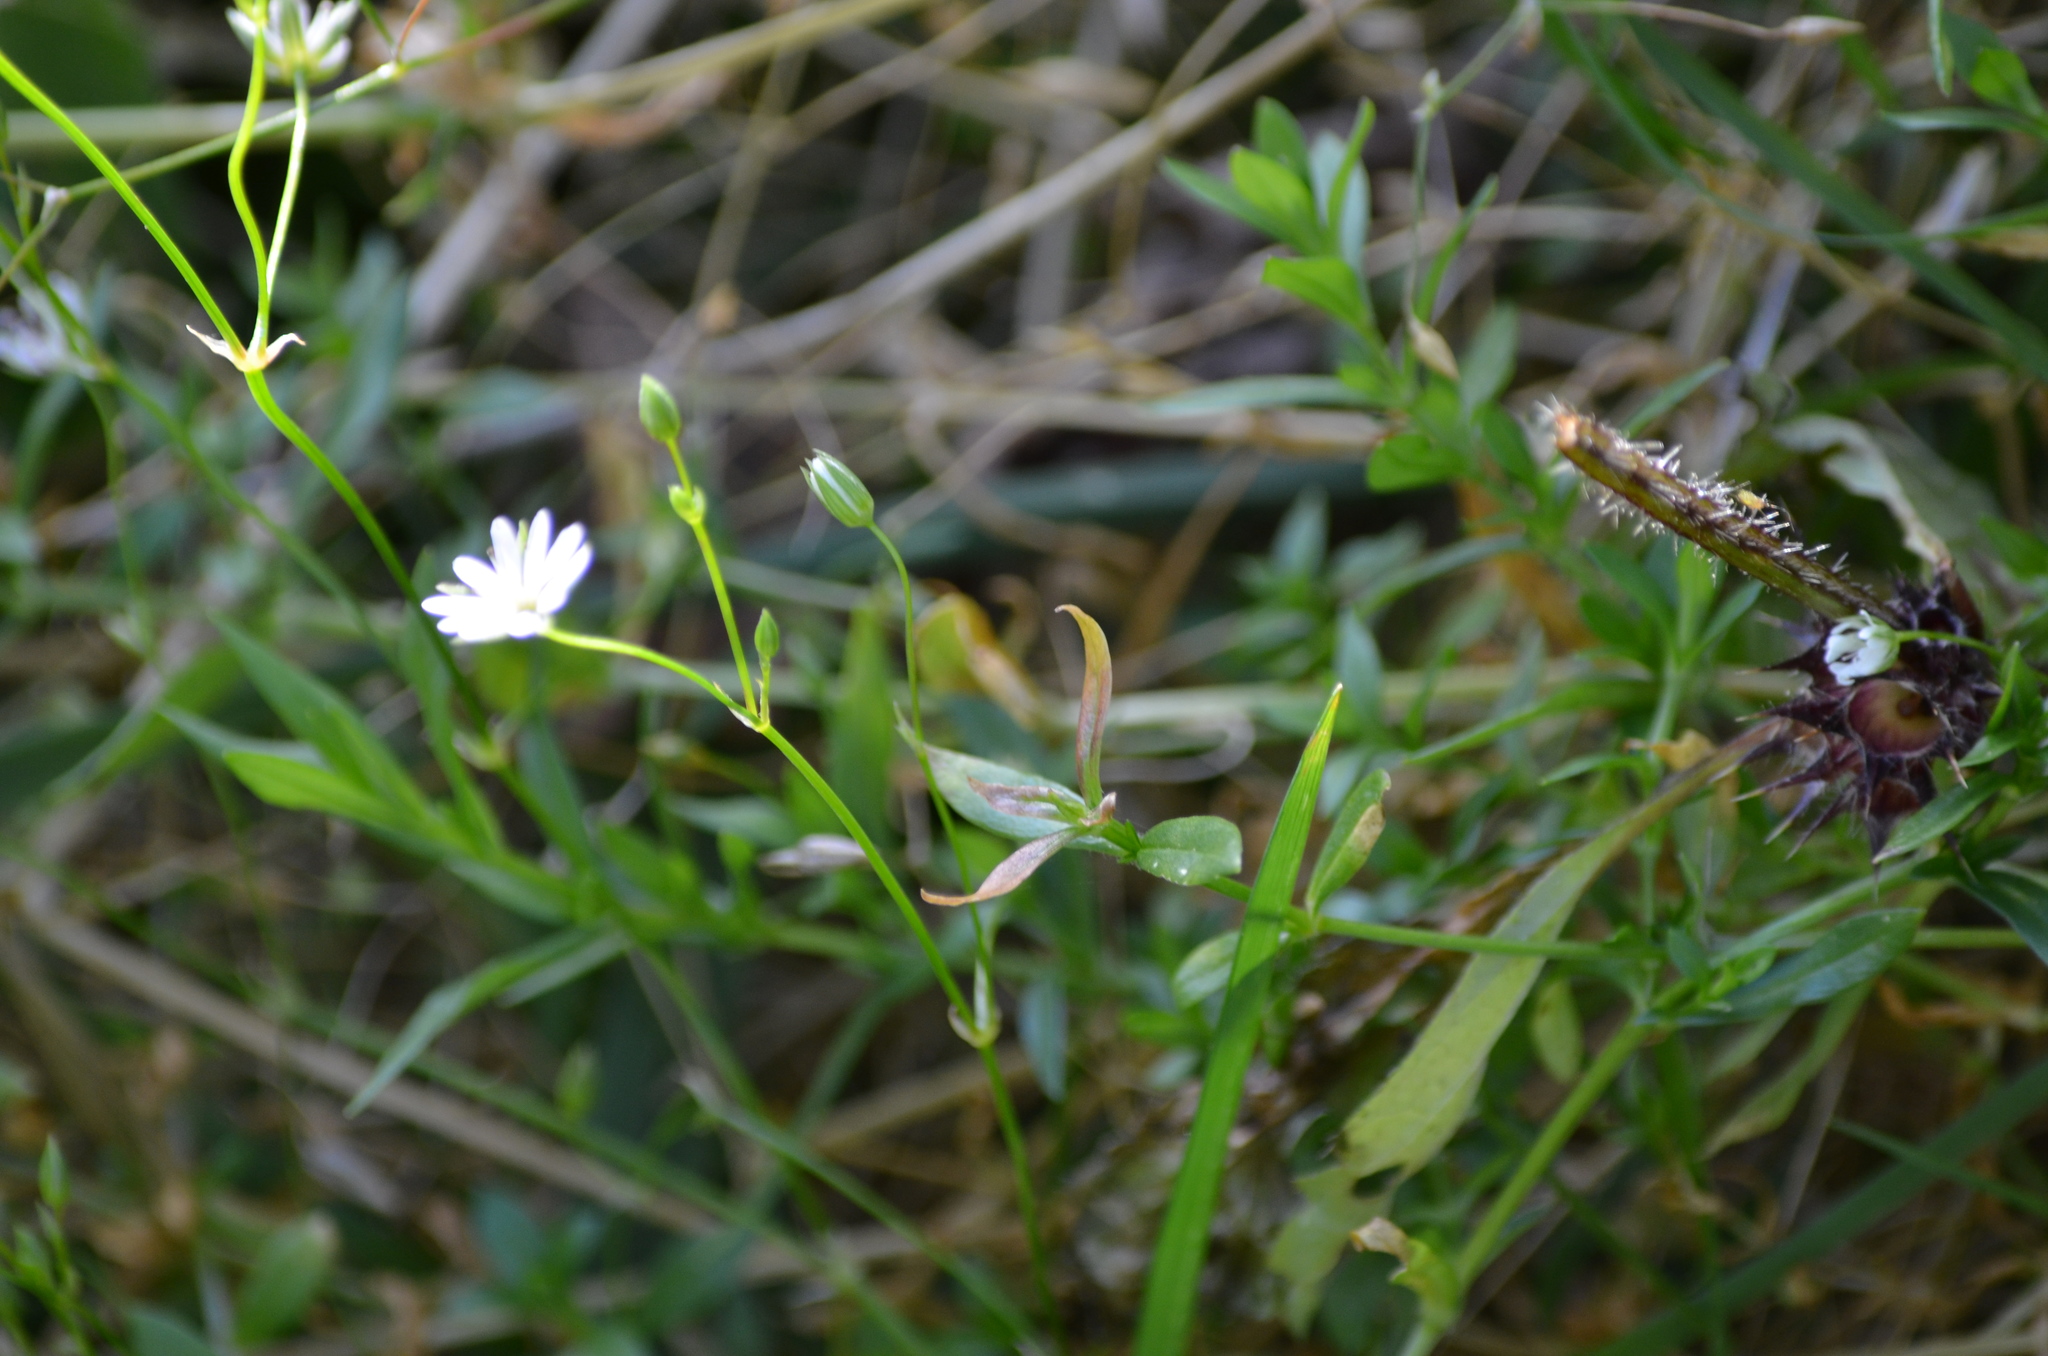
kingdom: Plantae
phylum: Tracheophyta
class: Magnoliopsida
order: Caryophyllales
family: Caryophyllaceae
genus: Stellaria
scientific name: Stellaria graminea
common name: Grass-like starwort
